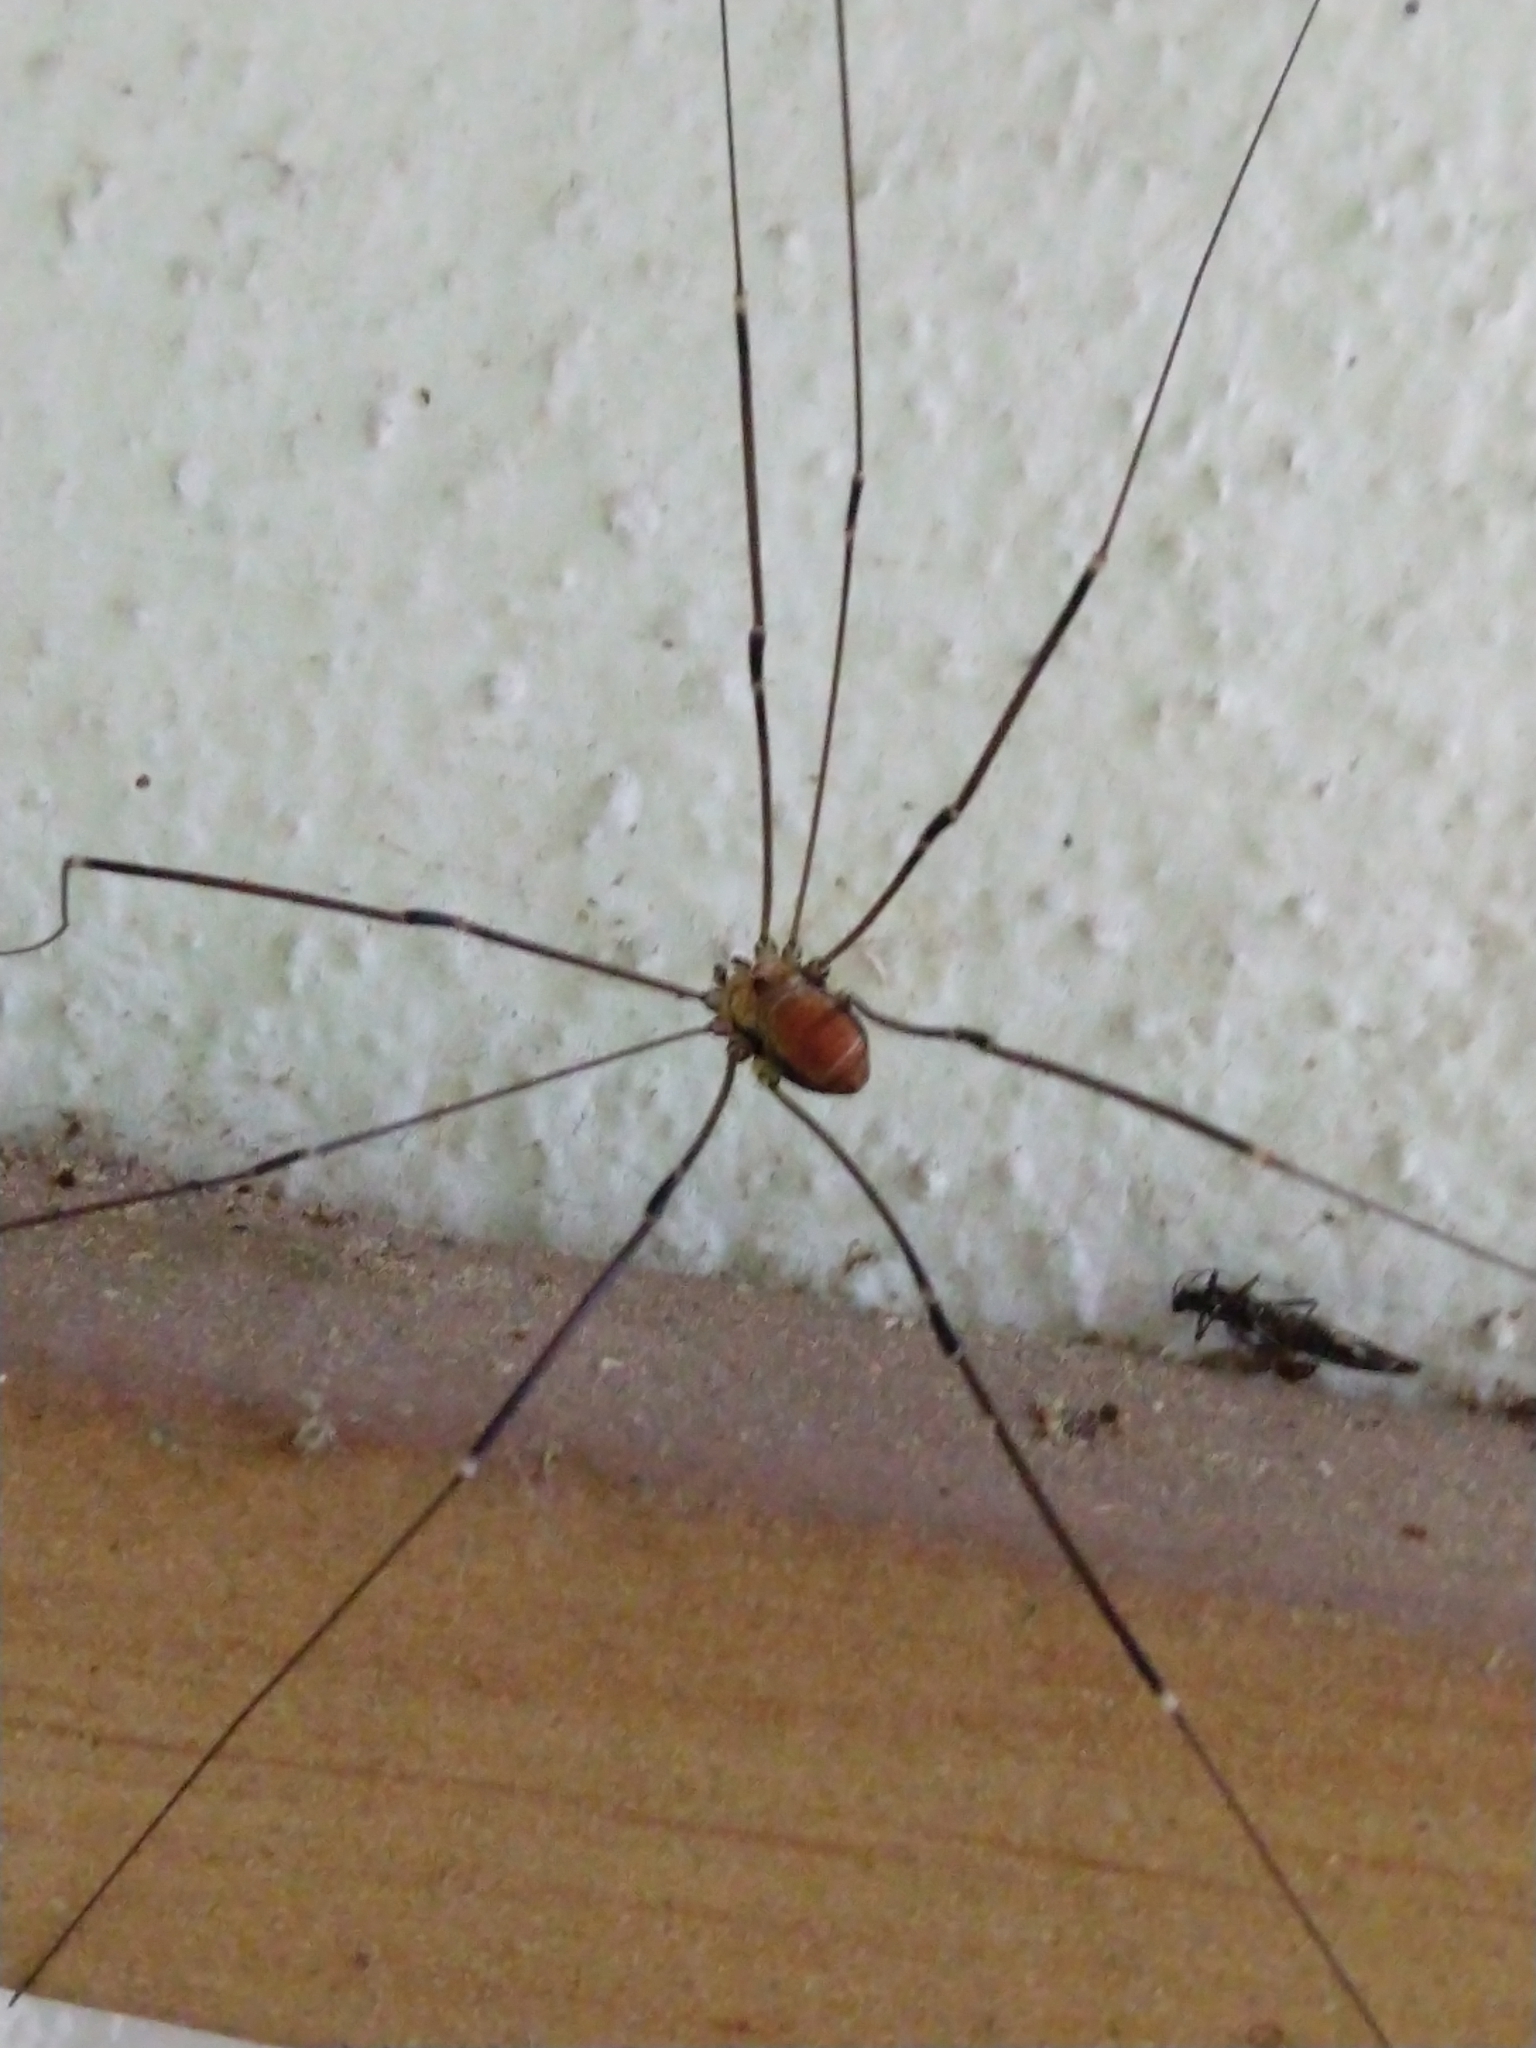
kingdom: Animalia
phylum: Arthropoda
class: Arachnida
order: Opiliones
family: Sclerosomatidae
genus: Leiobunum
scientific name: Leiobunum limbatum
